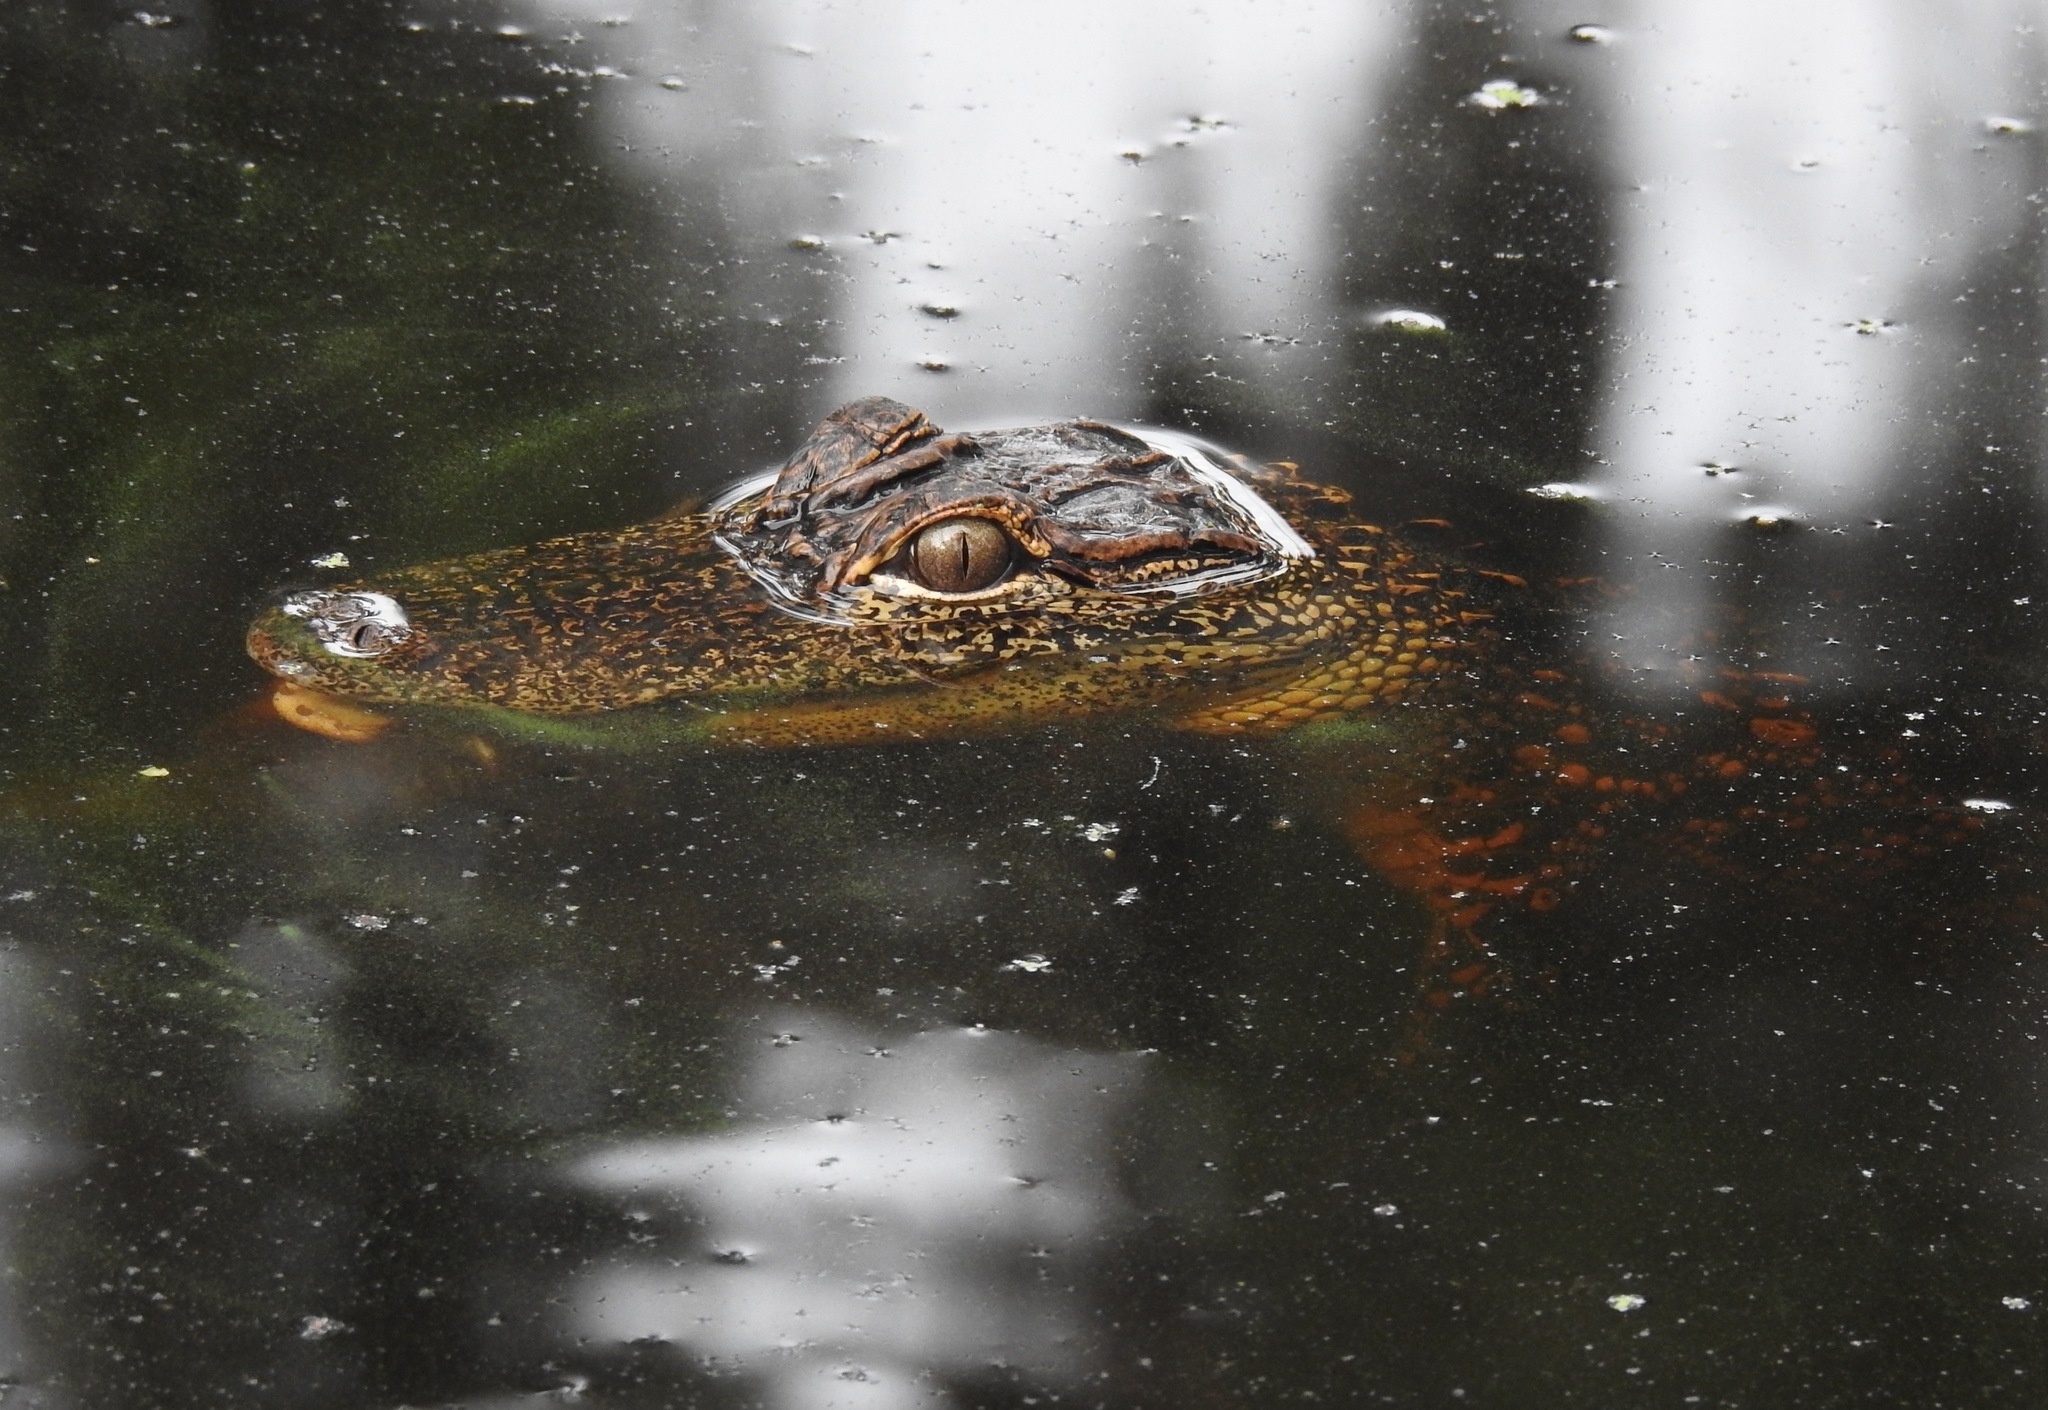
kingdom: Animalia
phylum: Chordata
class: Crocodylia
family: Alligatoridae
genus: Alligator
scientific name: Alligator mississippiensis
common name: American alligator
